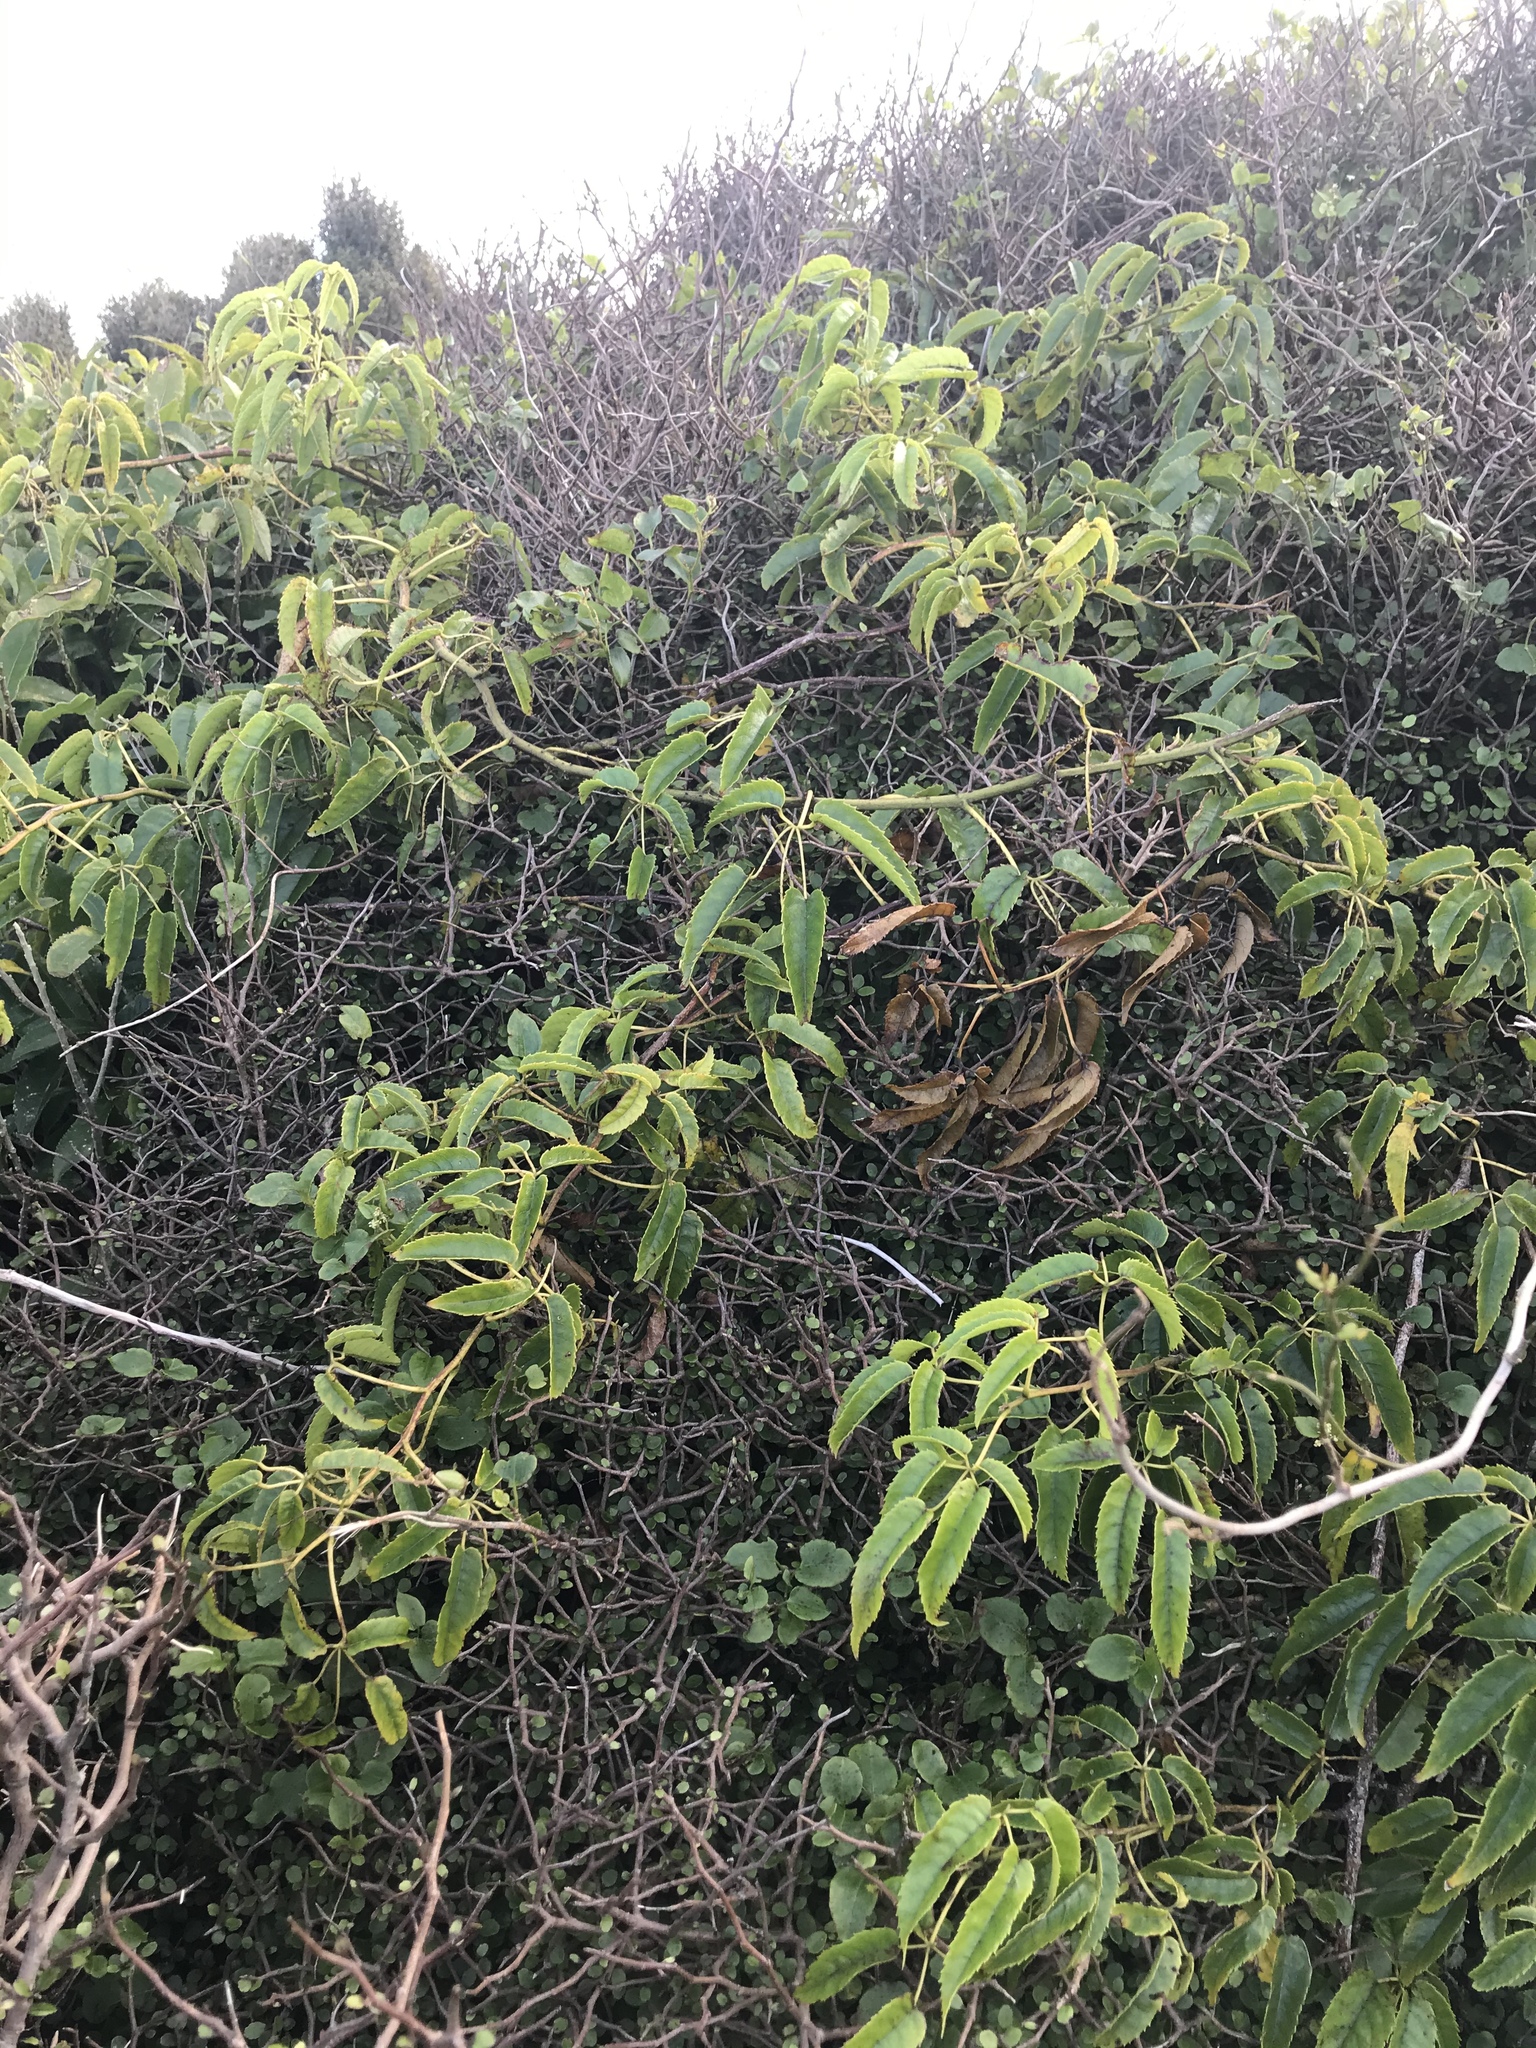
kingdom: Plantae
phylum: Tracheophyta
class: Magnoliopsida
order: Rosales
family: Rosaceae
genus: Rubus
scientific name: Rubus cissoides
